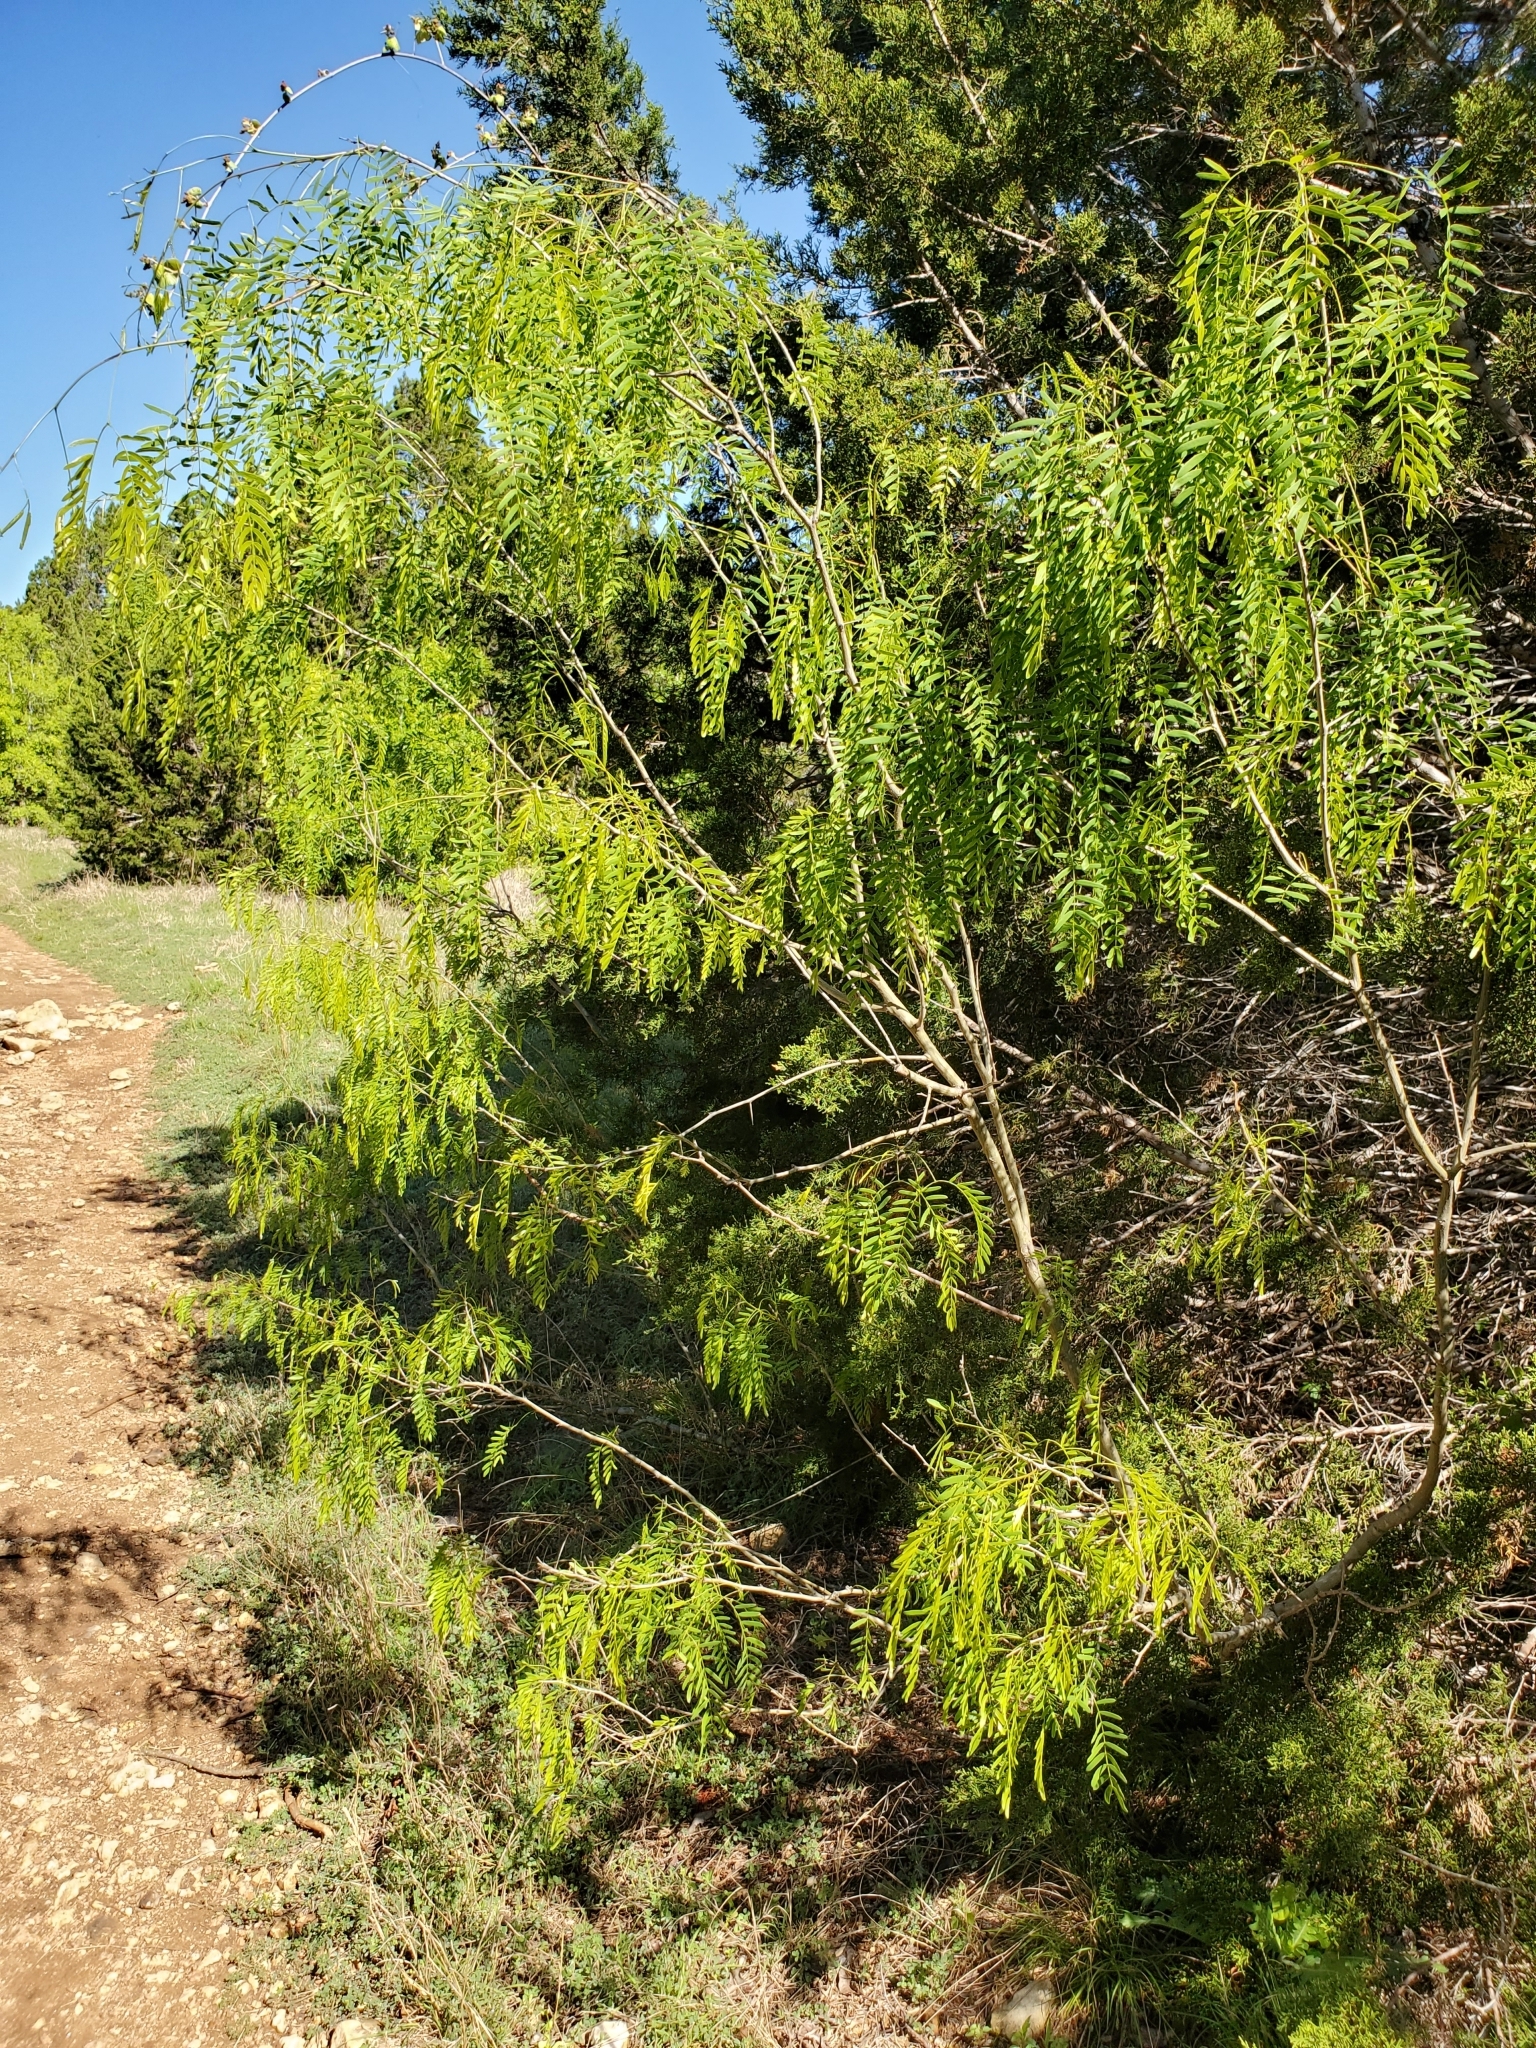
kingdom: Plantae
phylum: Tracheophyta
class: Magnoliopsida
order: Fabales
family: Fabaceae
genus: Prosopis
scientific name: Prosopis glandulosa
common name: Honey mesquite
